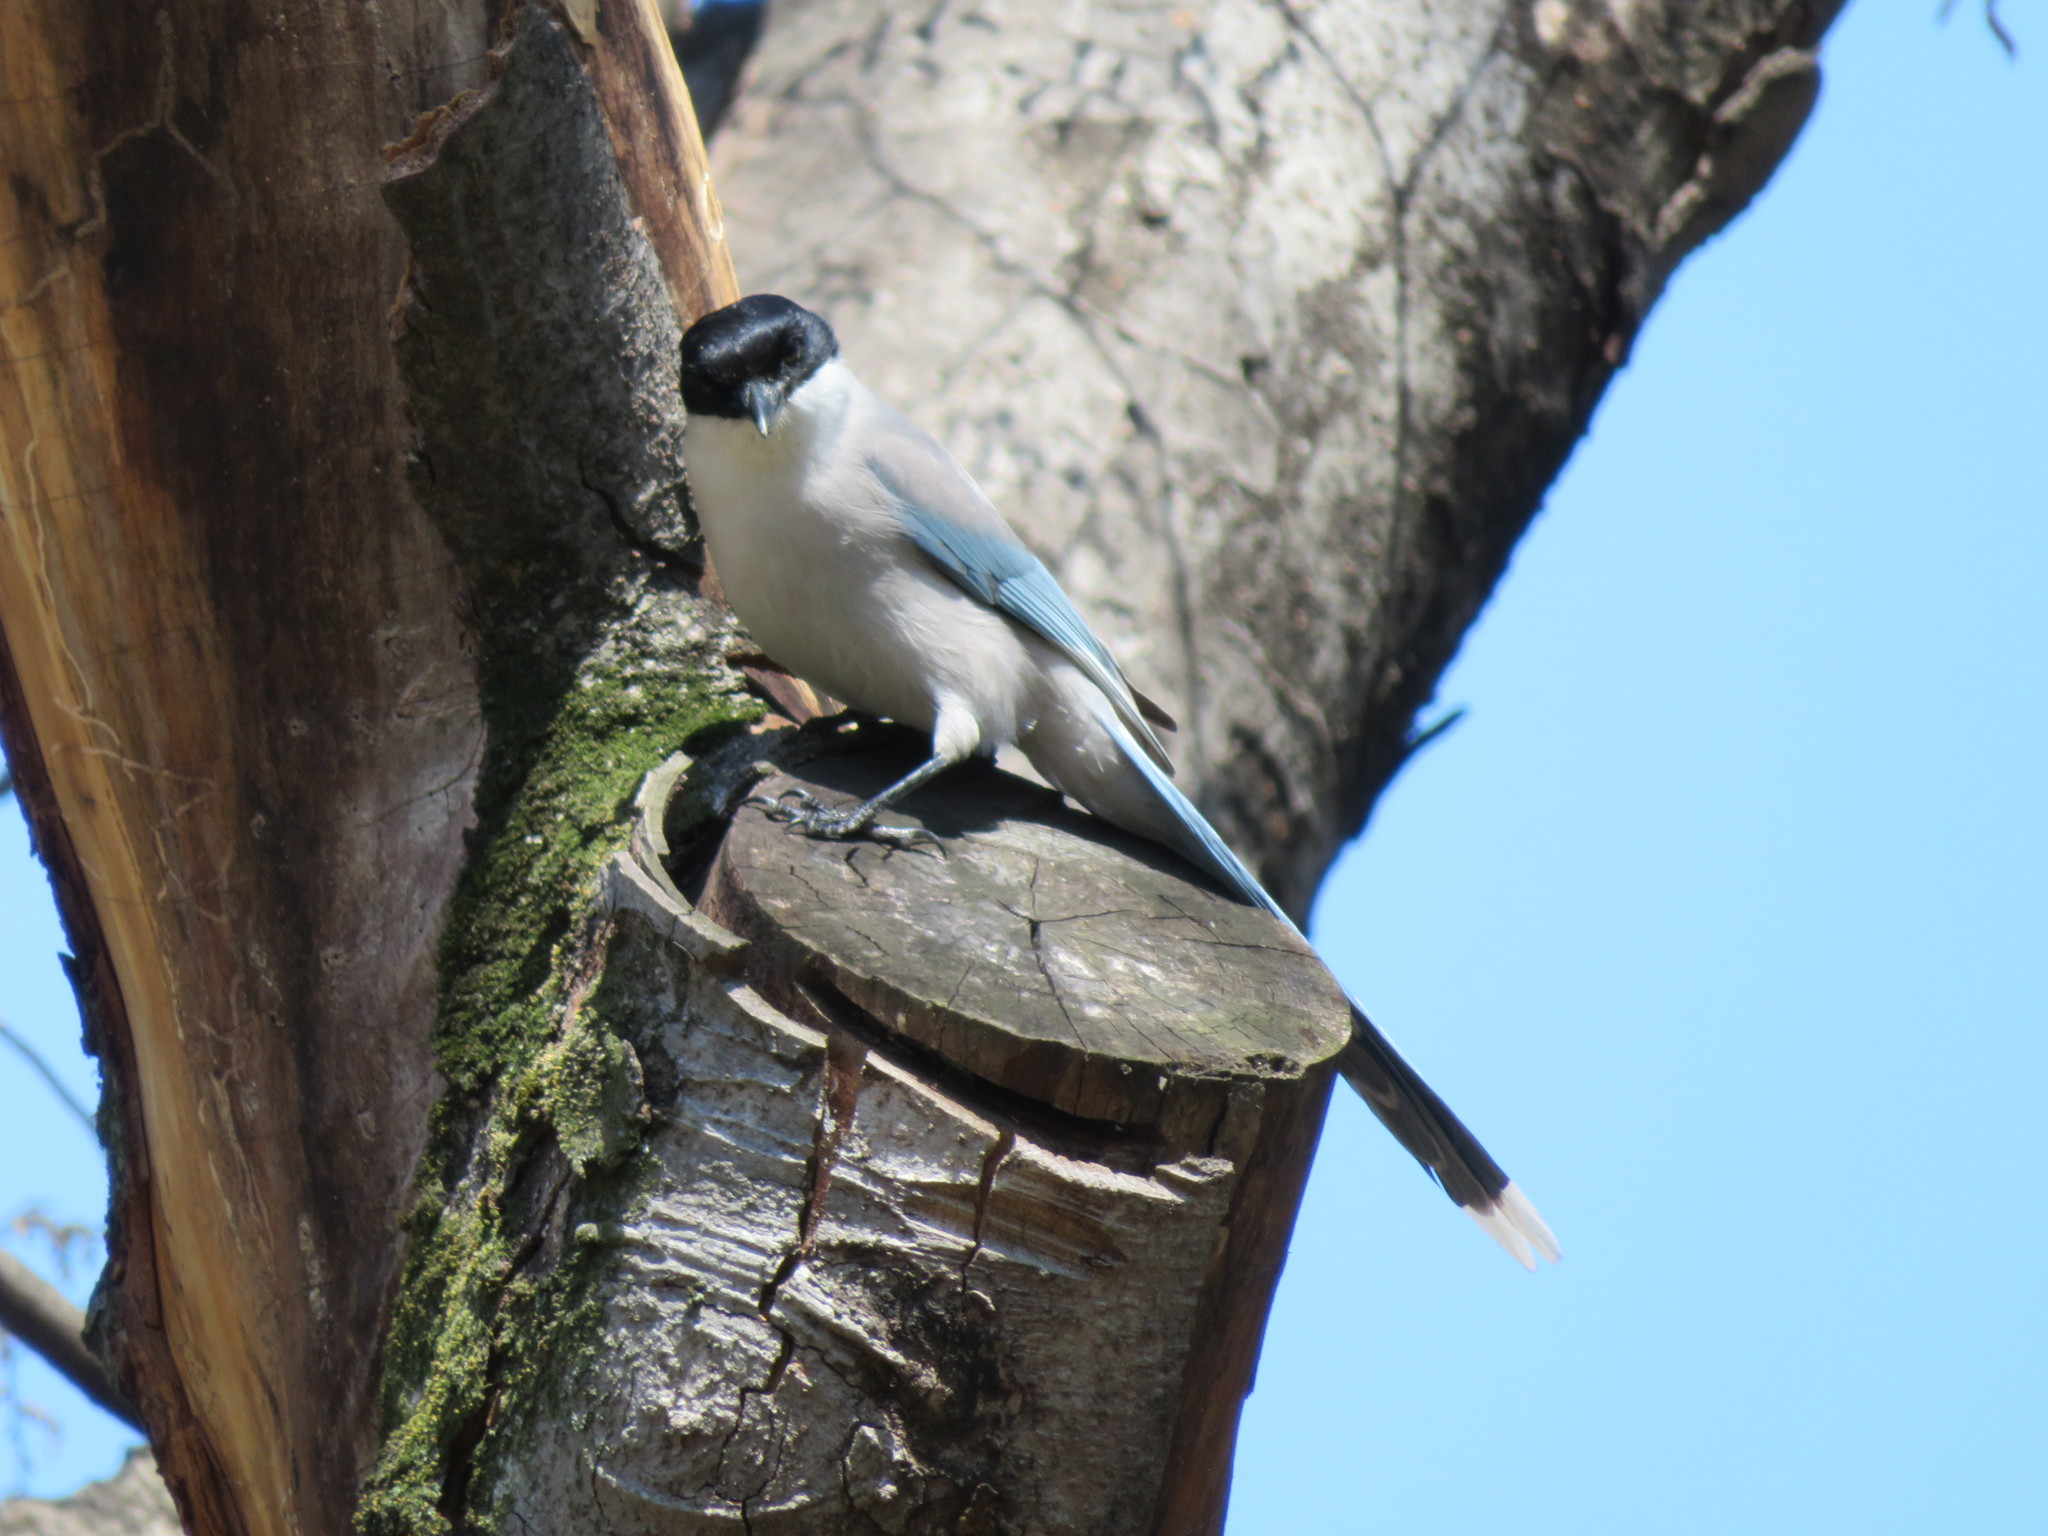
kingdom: Animalia
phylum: Chordata
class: Aves
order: Passeriformes
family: Corvidae
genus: Cyanopica
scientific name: Cyanopica cyanus
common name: Azure-winged magpie
